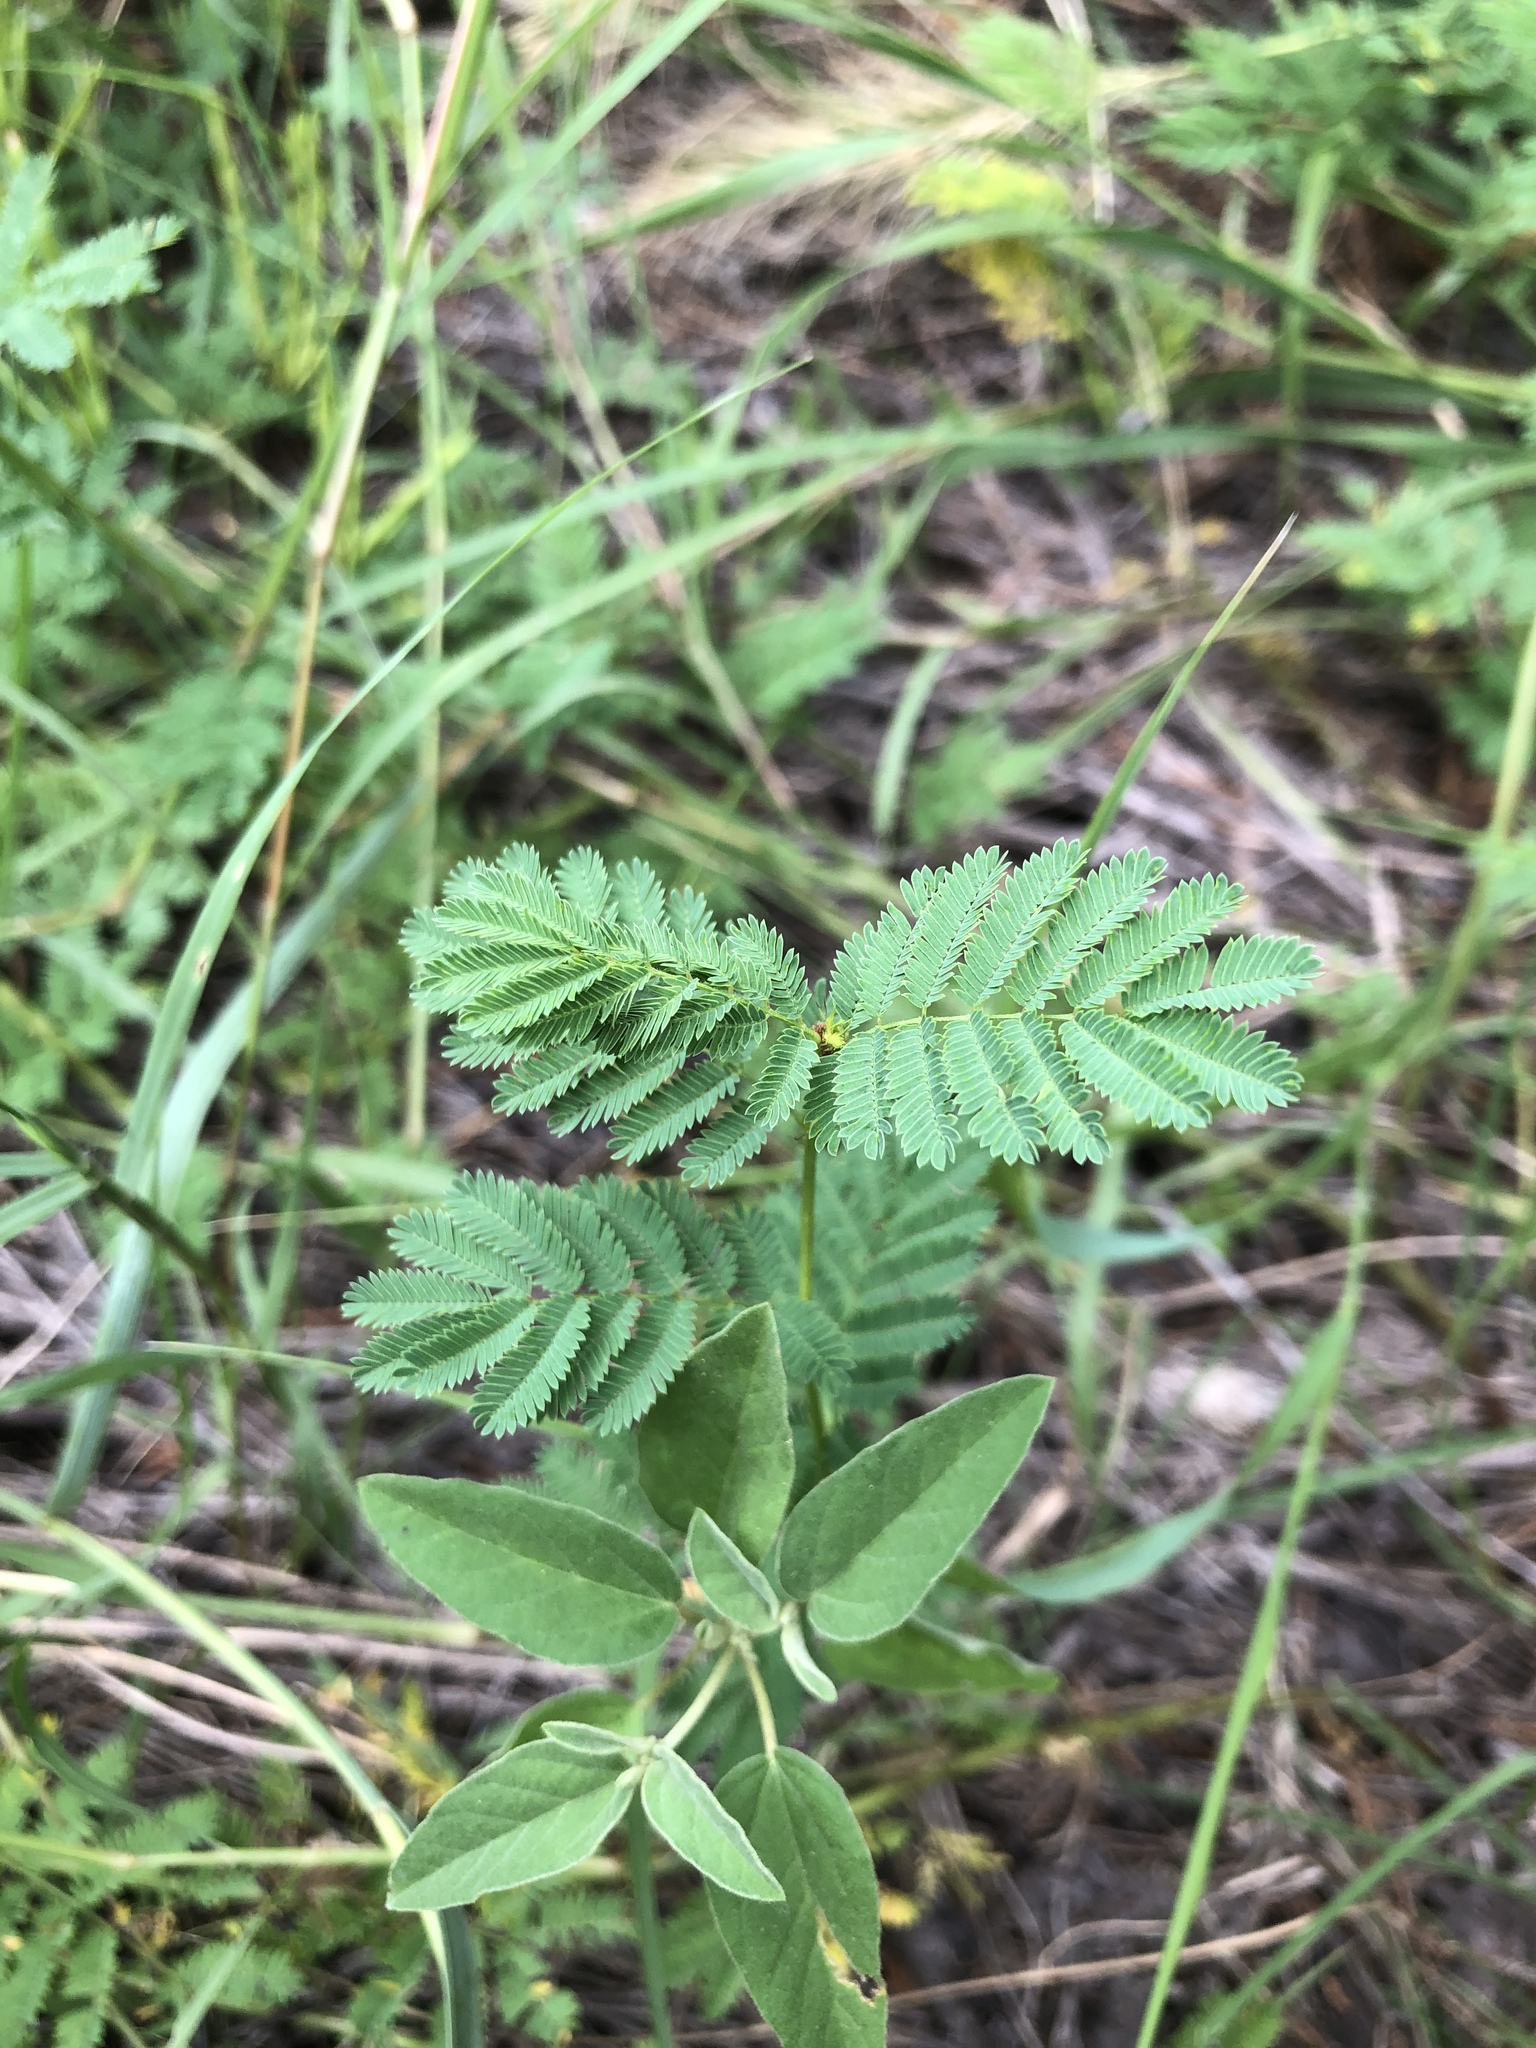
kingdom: Plantae
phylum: Tracheophyta
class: Magnoliopsida
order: Fabales
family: Fabaceae
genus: Desmanthus
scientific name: Desmanthus illinoensis
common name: Illinois bundle-flower
